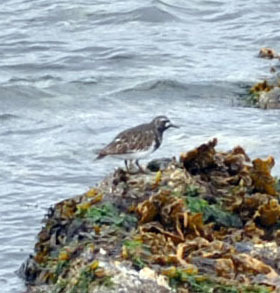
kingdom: Animalia
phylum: Chordata
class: Aves
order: Charadriiformes
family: Scolopacidae
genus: Arenaria
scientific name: Arenaria melanocephala
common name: Black turnstone
